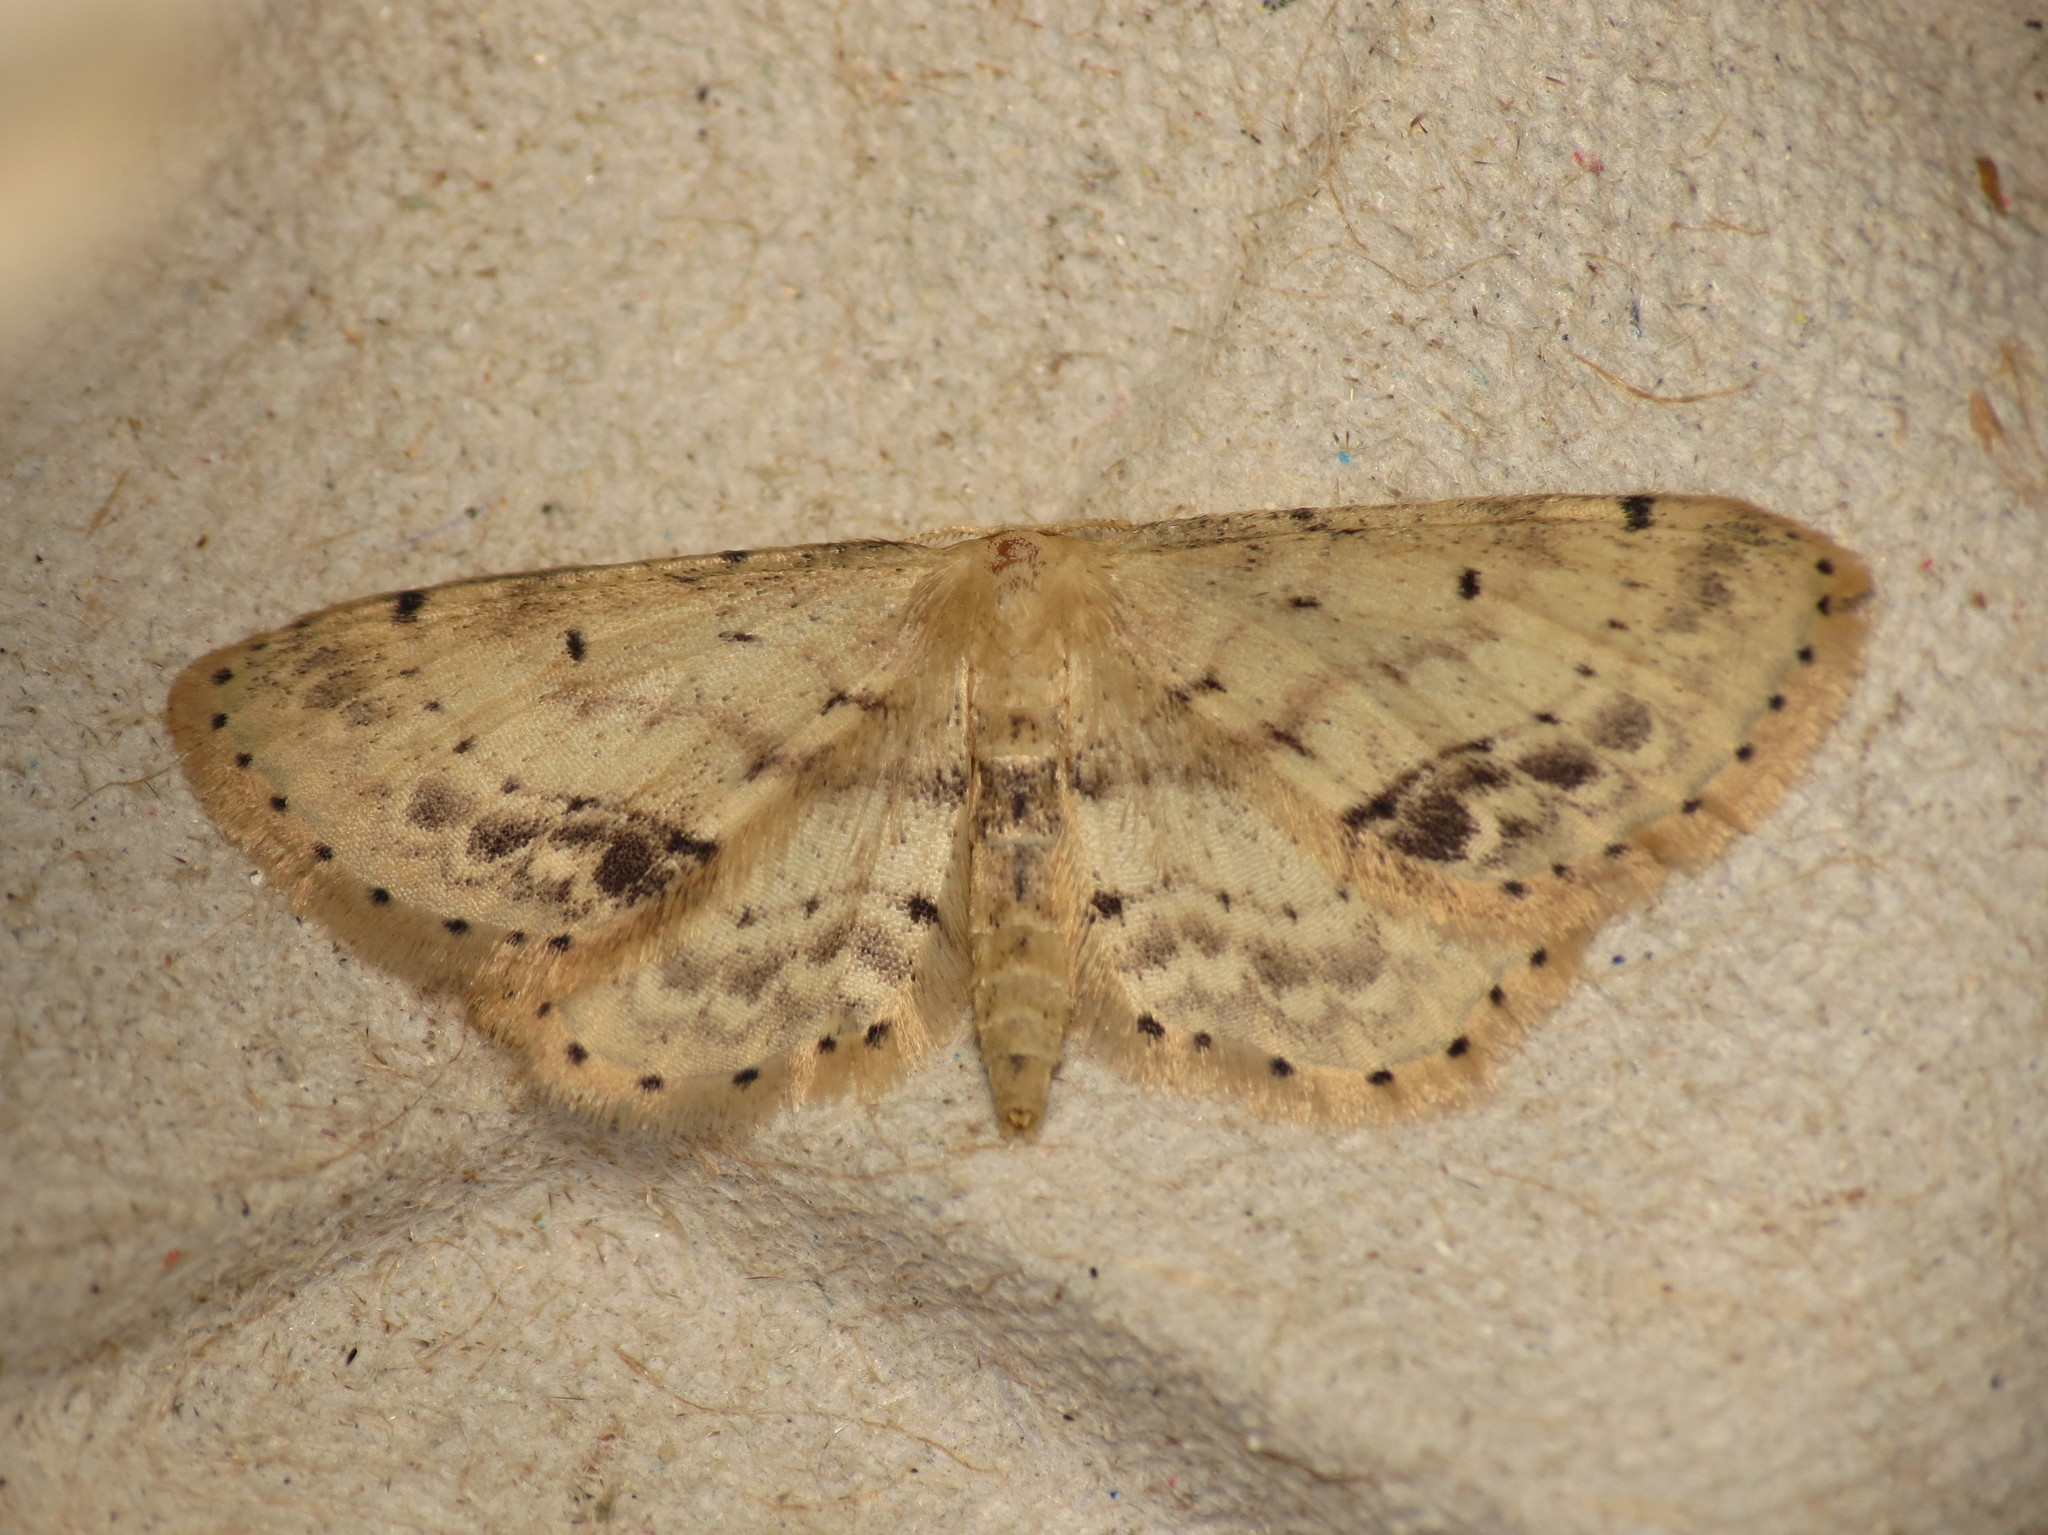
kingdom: Animalia
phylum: Arthropoda
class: Insecta
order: Lepidoptera
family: Geometridae
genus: Idaea
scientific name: Idaea dimidiata
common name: Single-dotted wave
